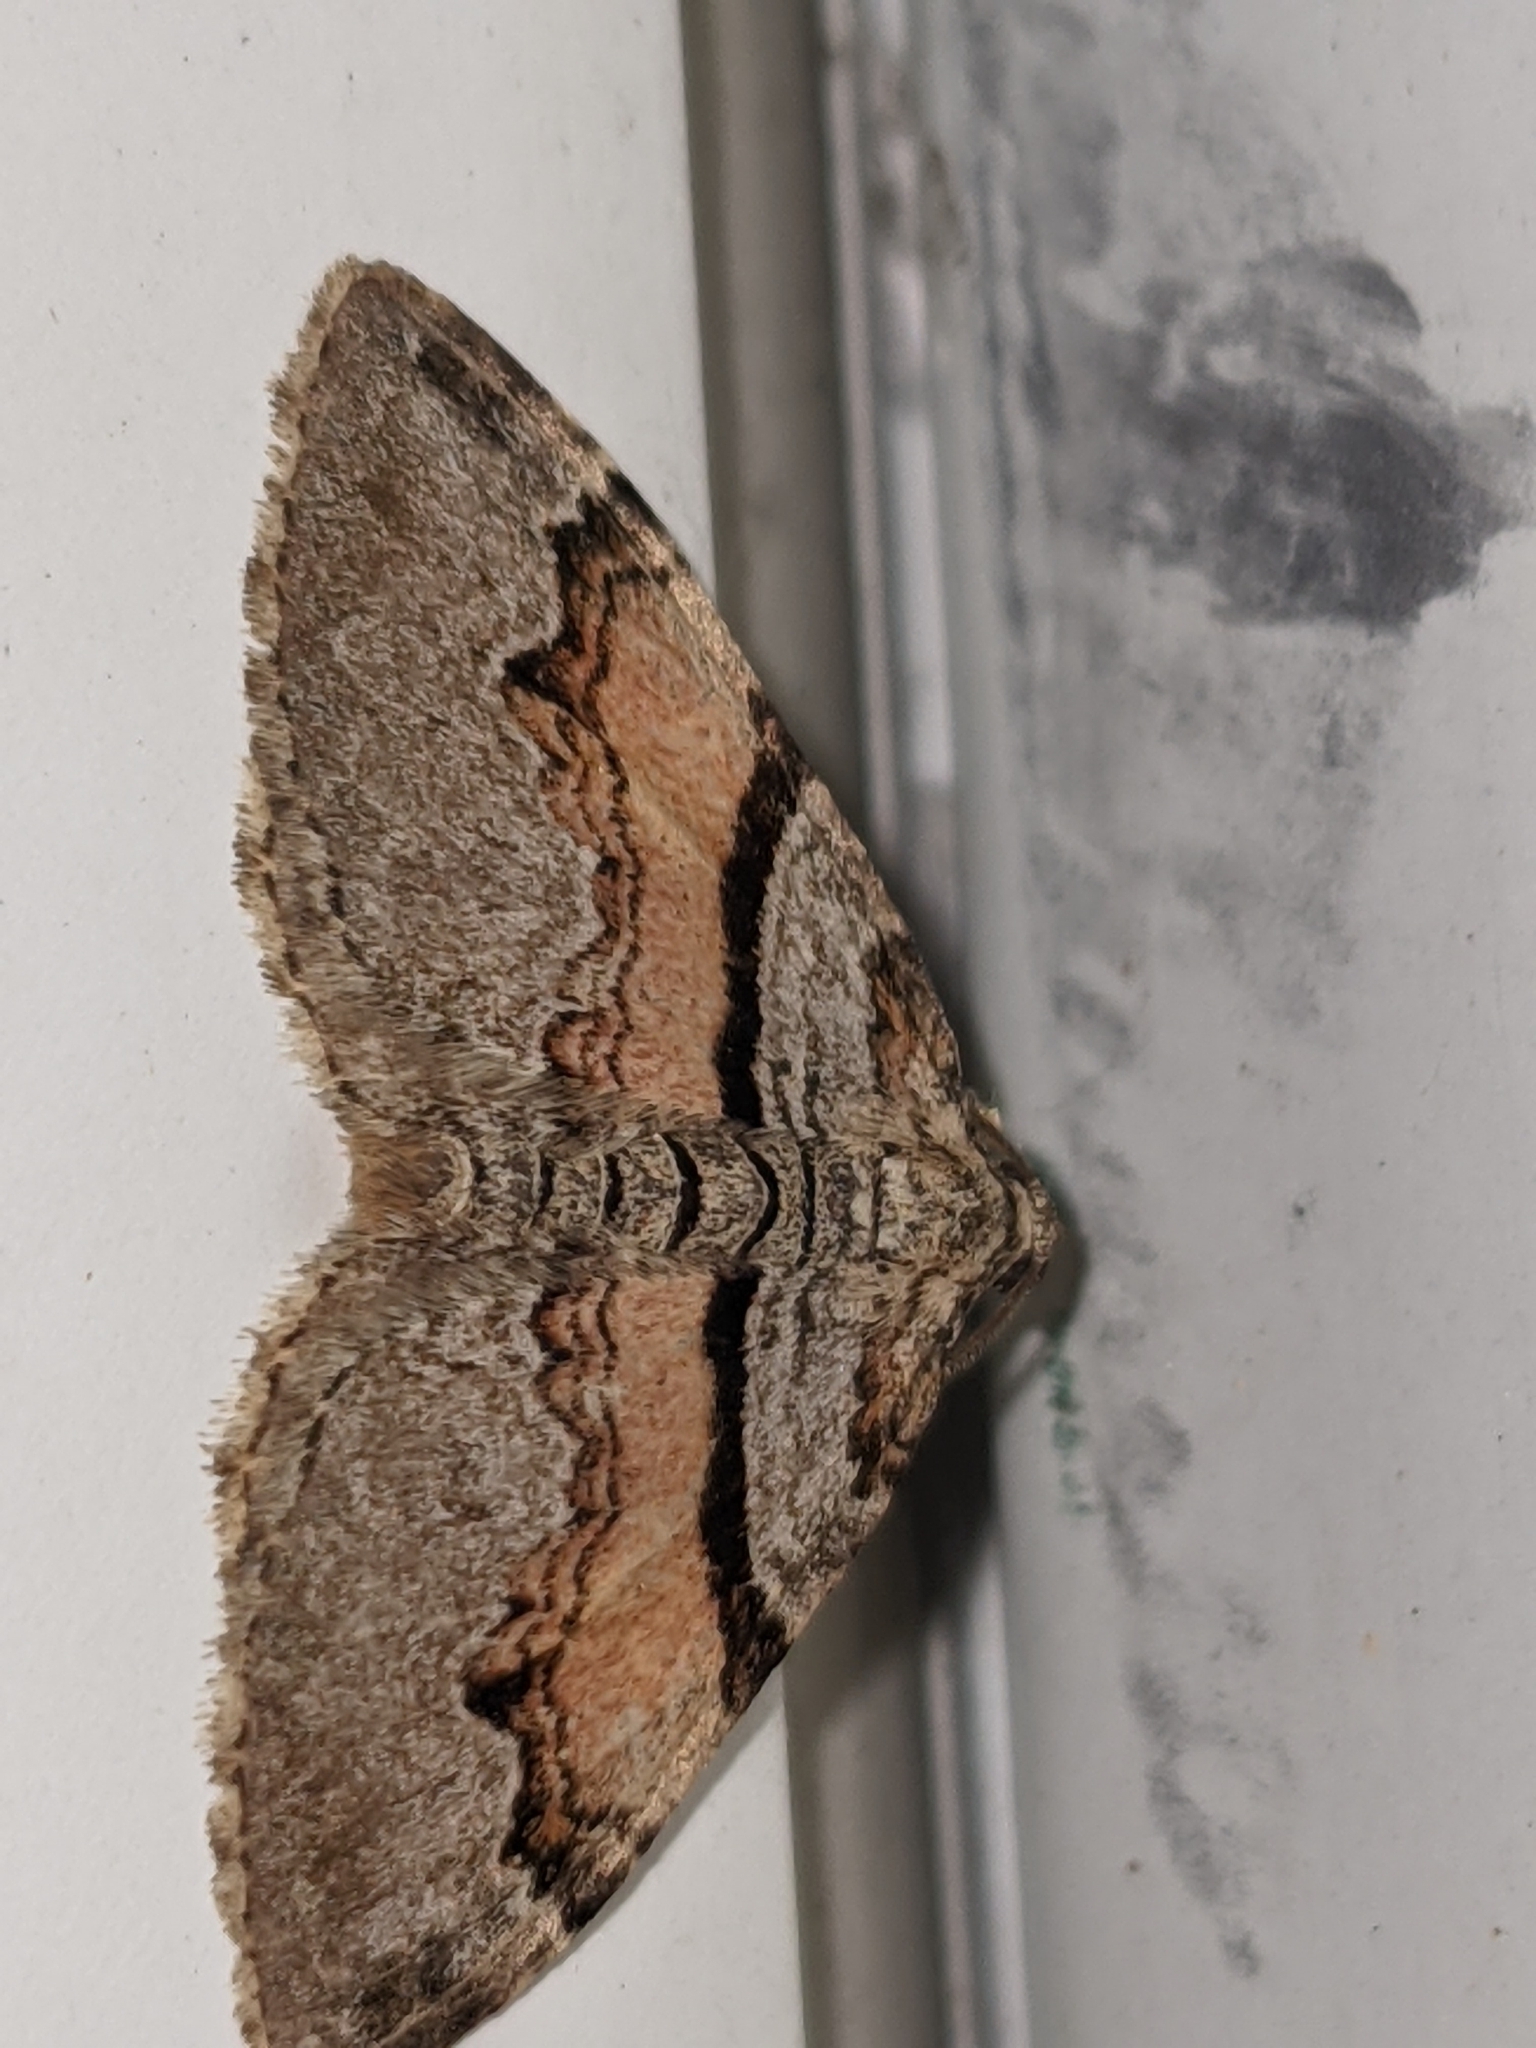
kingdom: Animalia
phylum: Arthropoda
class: Insecta
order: Lepidoptera
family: Geometridae
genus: Xanthorhoe
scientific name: Xanthorhoe labradorensis
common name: Labrador carpet
